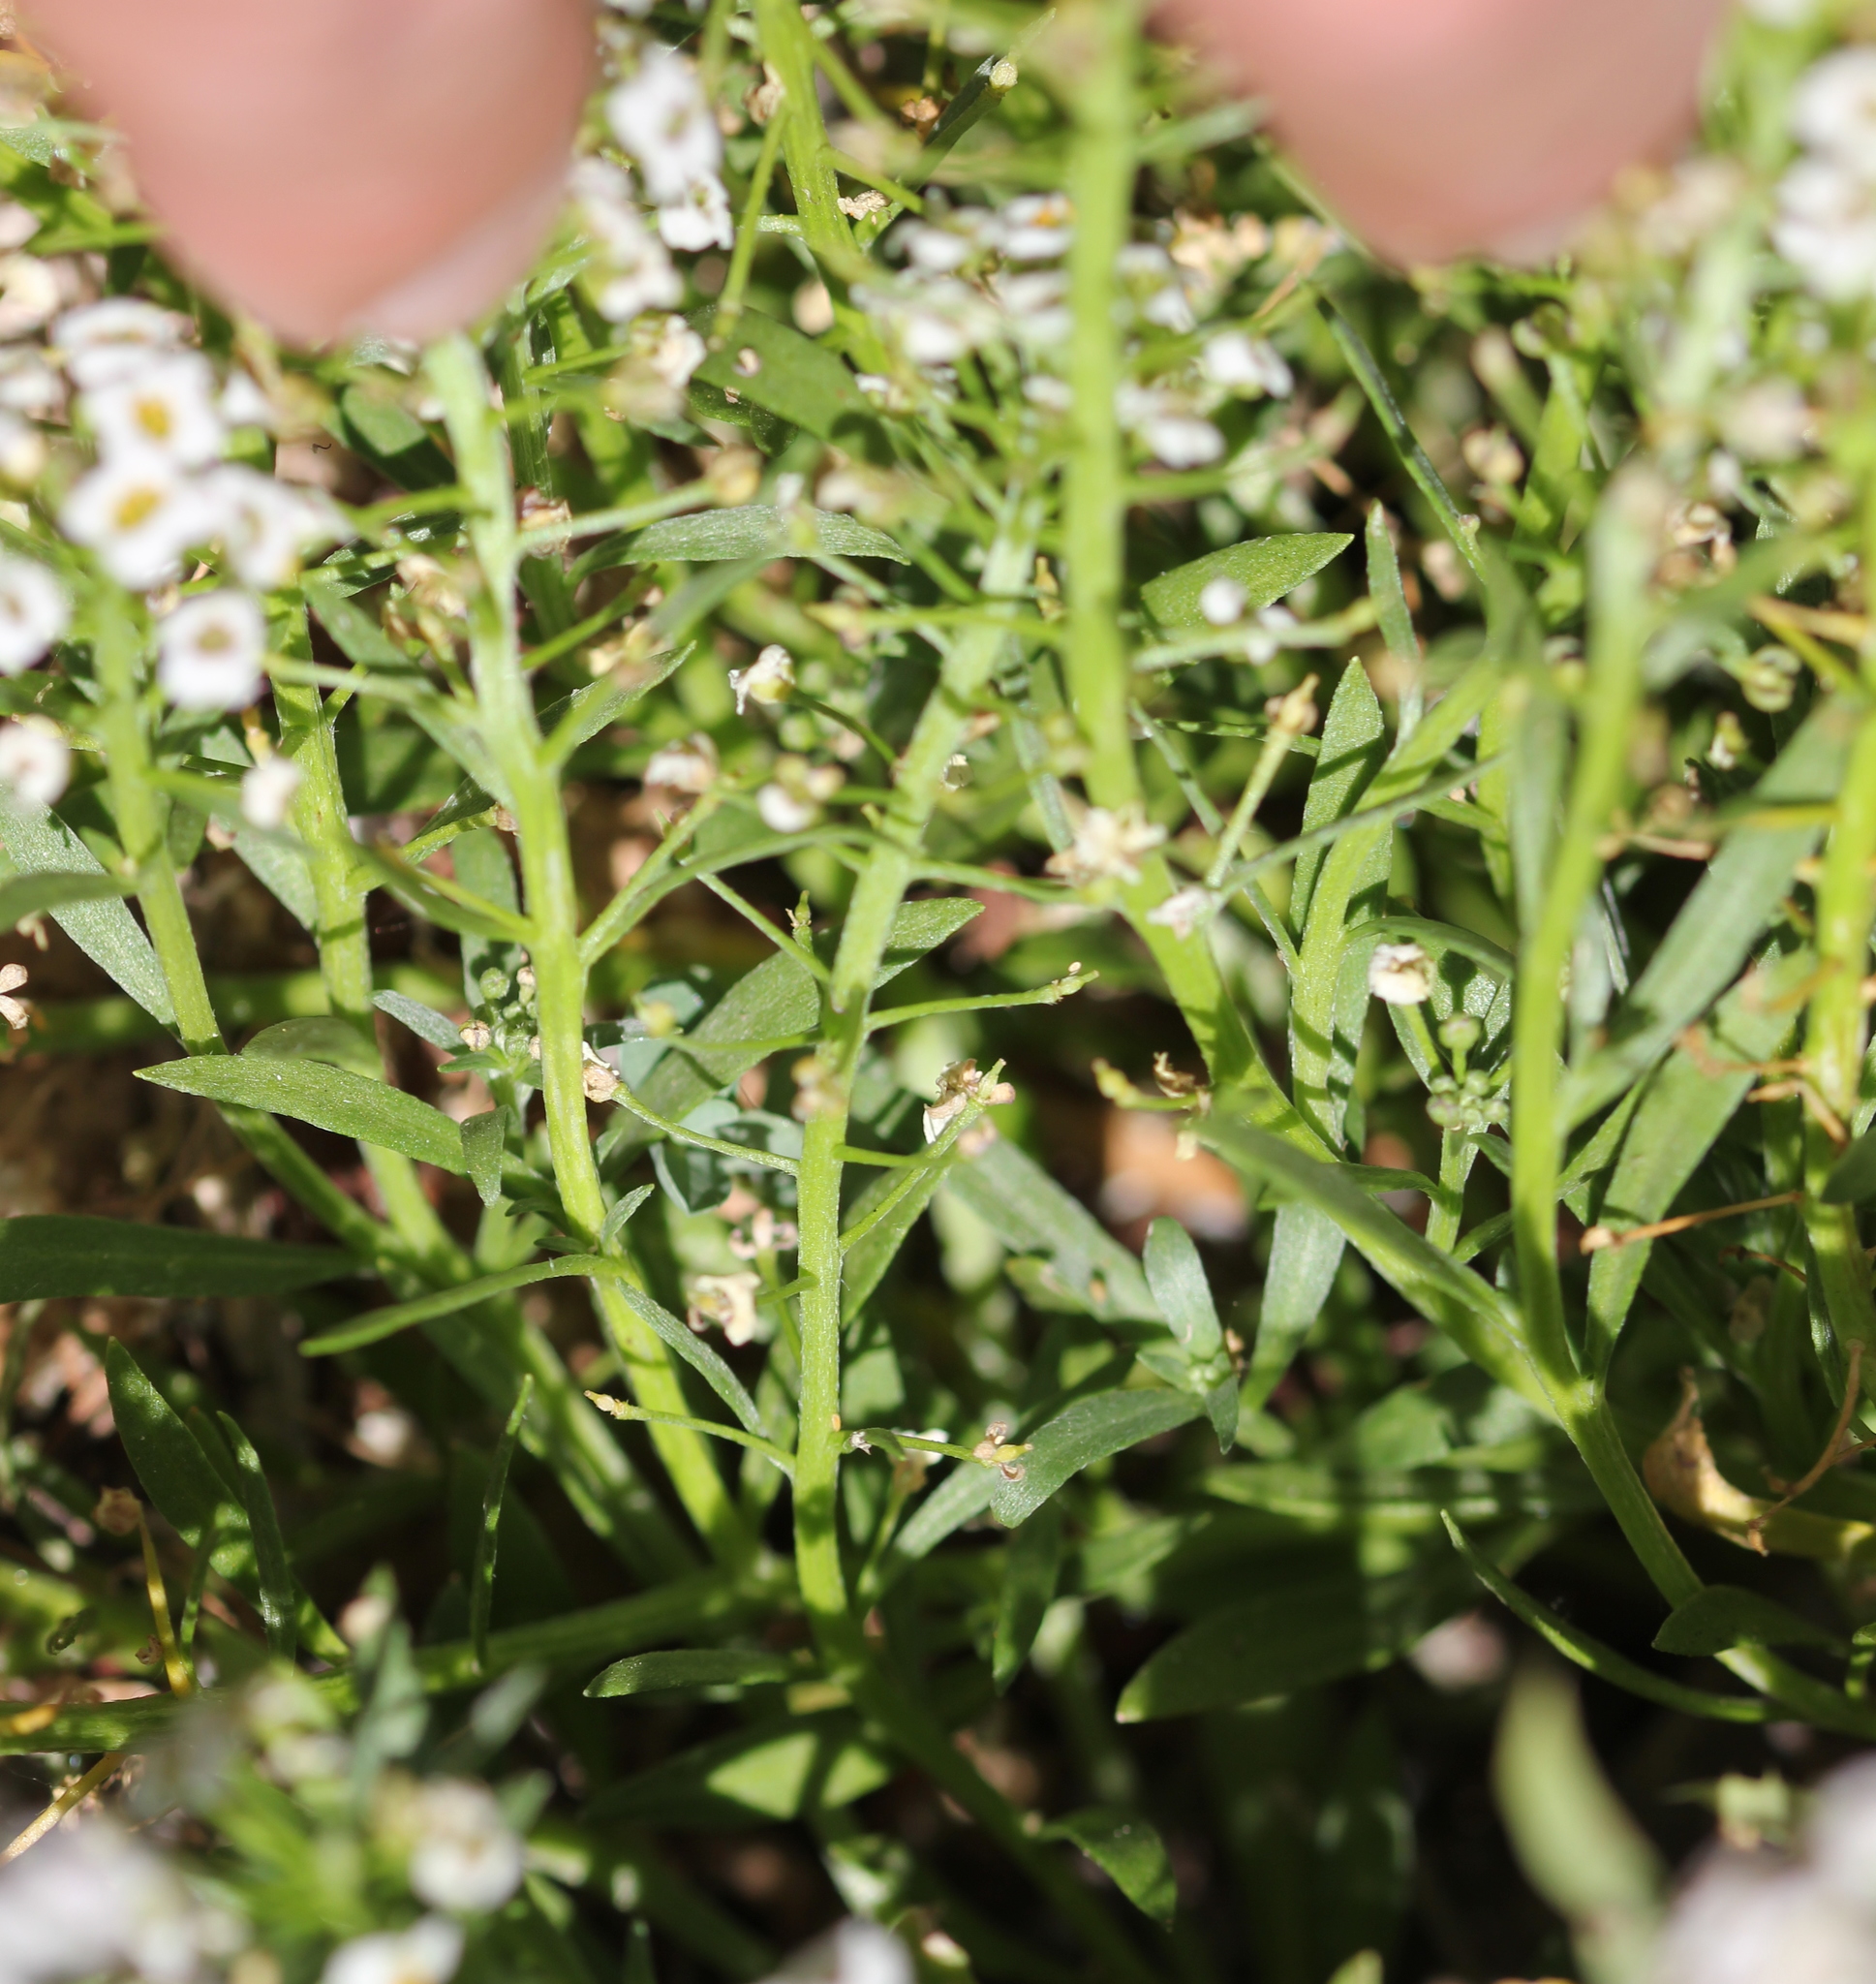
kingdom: Plantae
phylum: Tracheophyta
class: Magnoliopsida
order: Brassicales
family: Brassicaceae
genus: Lobularia
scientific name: Lobularia maritima
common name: Sweet alison
